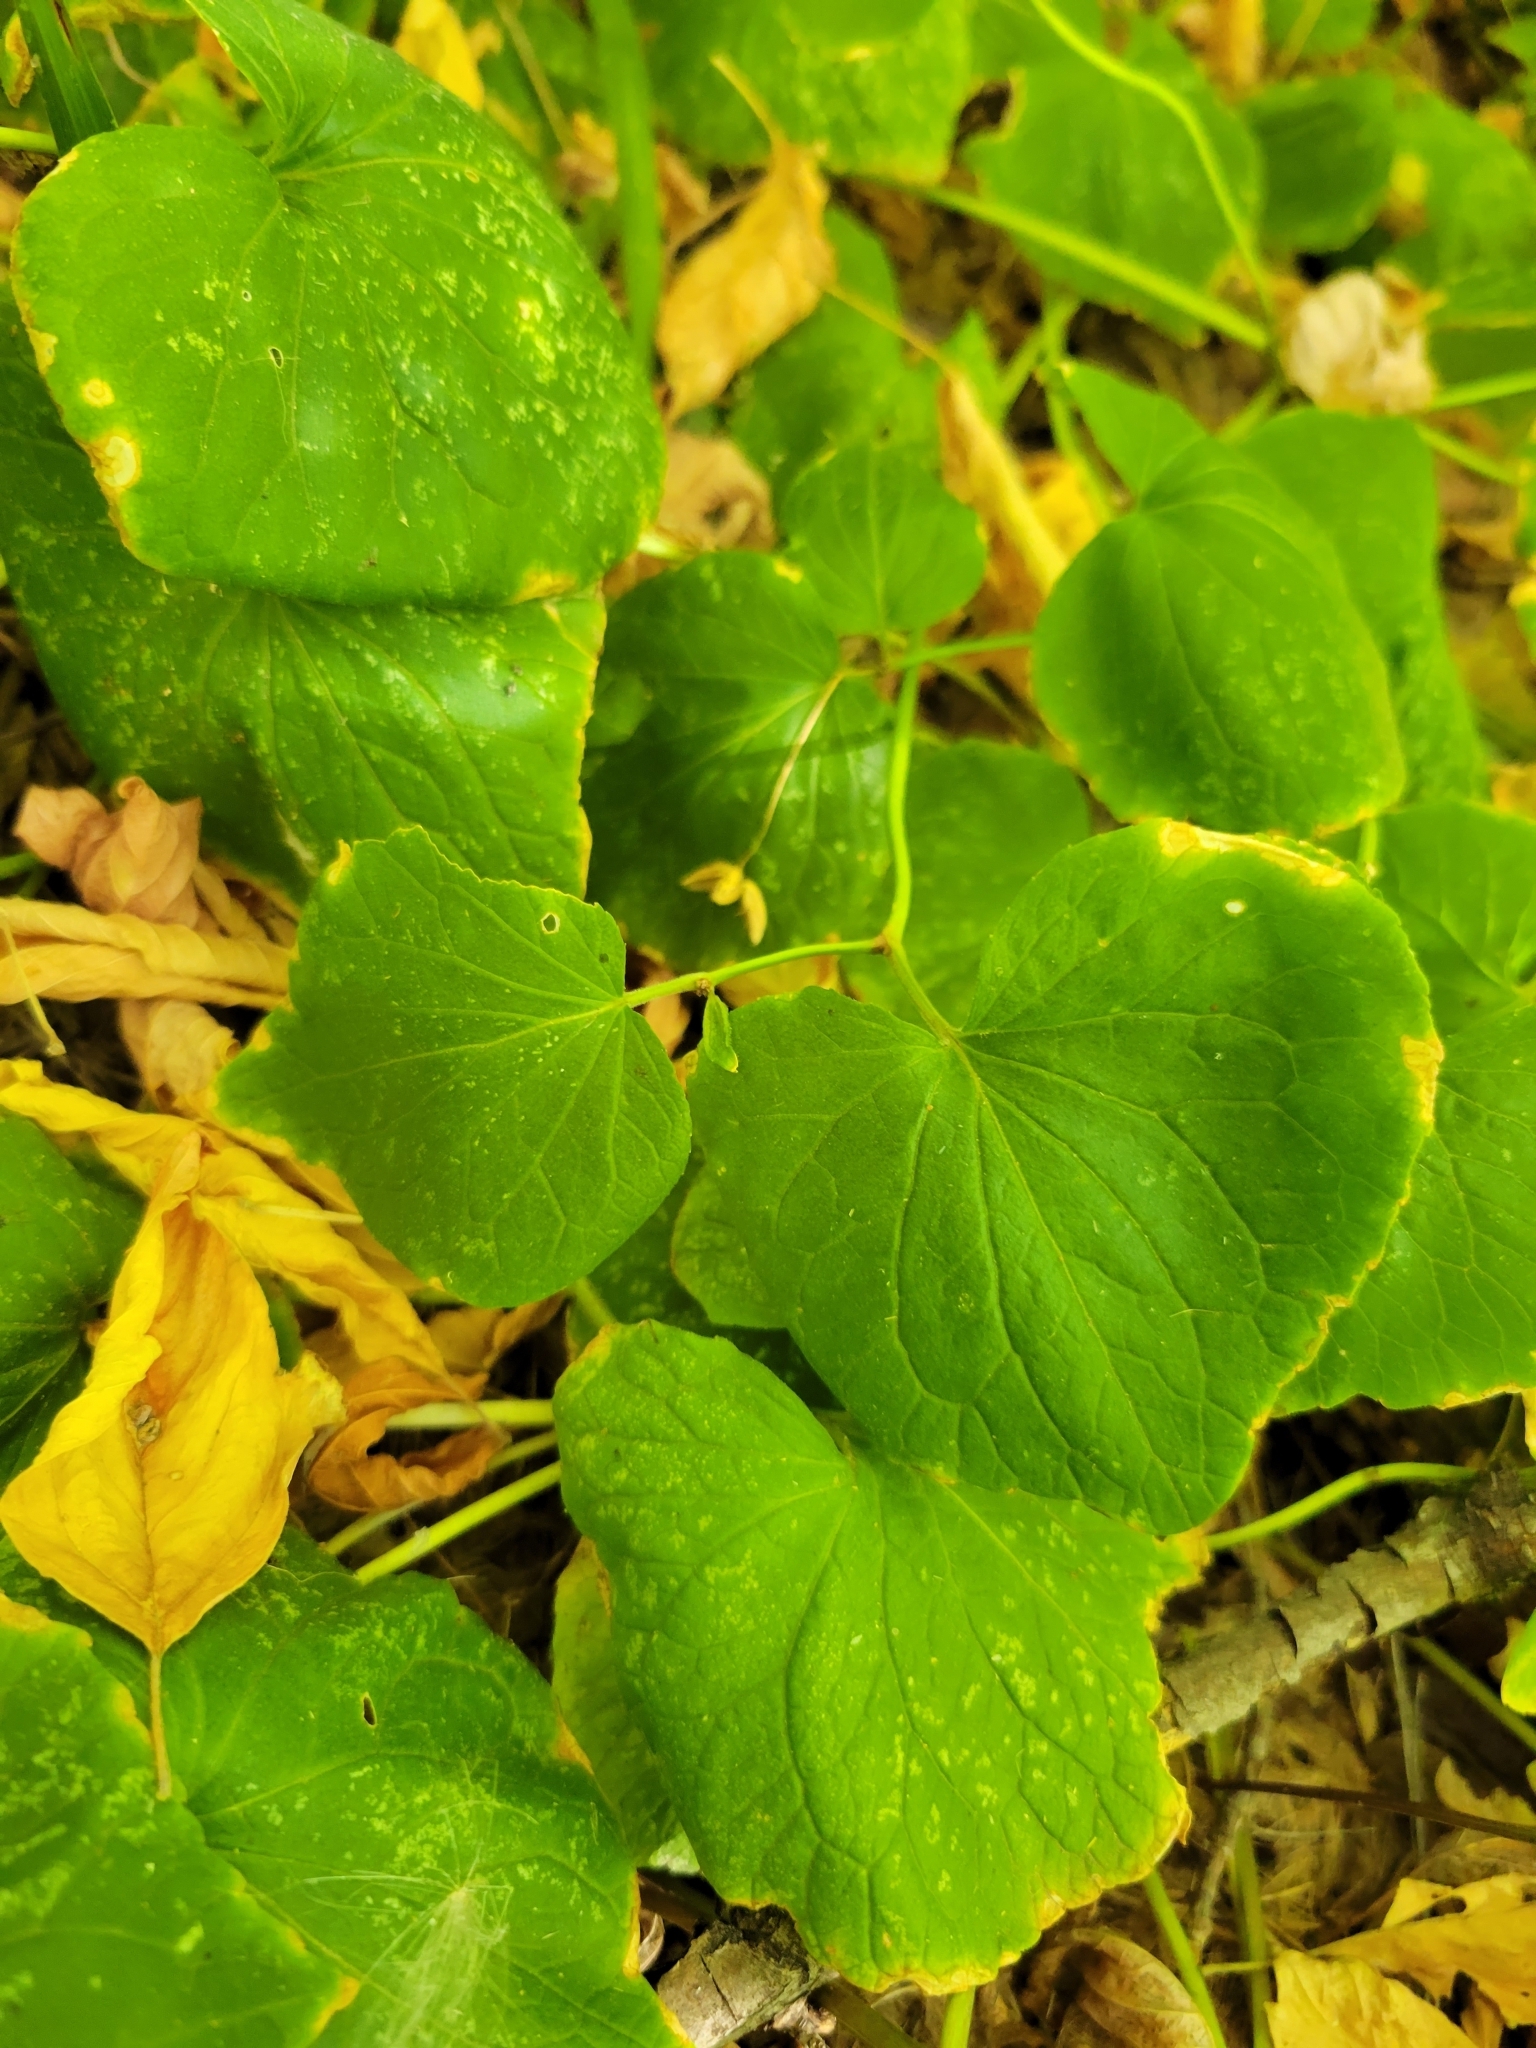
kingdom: Plantae
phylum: Tracheophyta
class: Magnoliopsida
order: Malpighiales
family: Violaceae
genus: Viola
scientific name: Viola canadensis
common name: Canada violet
